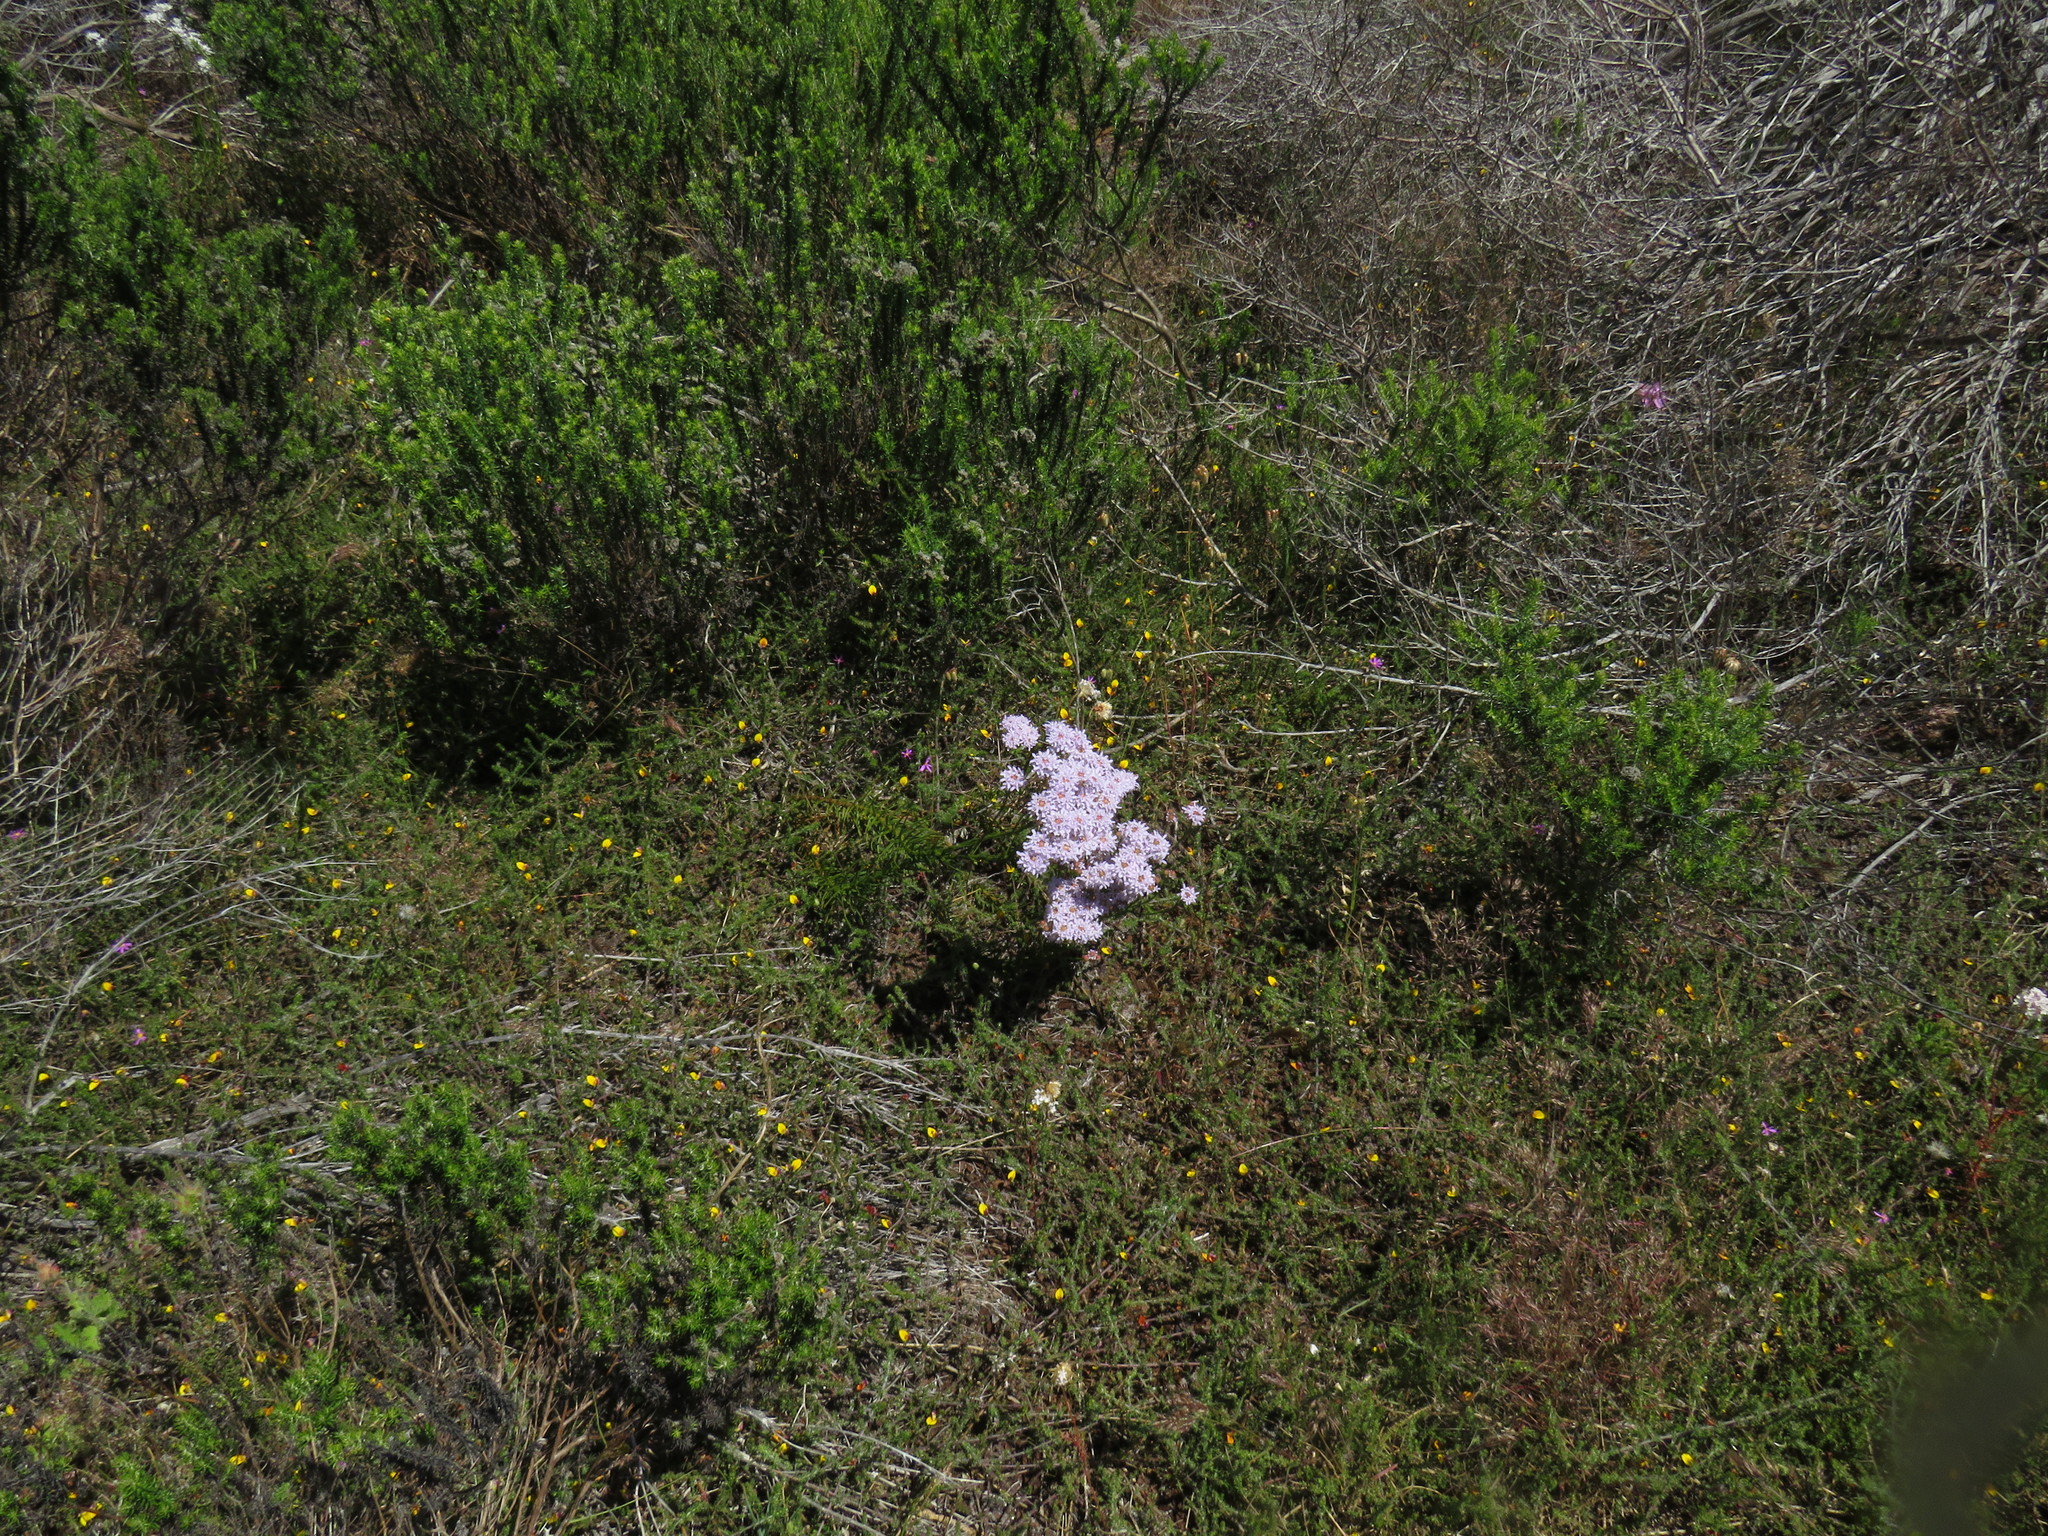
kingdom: Plantae
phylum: Tracheophyta
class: Magnoliopsida
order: Lamiales
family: Scrophulariaceae
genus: Pseudoselago
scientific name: Pseudoselago spuria
